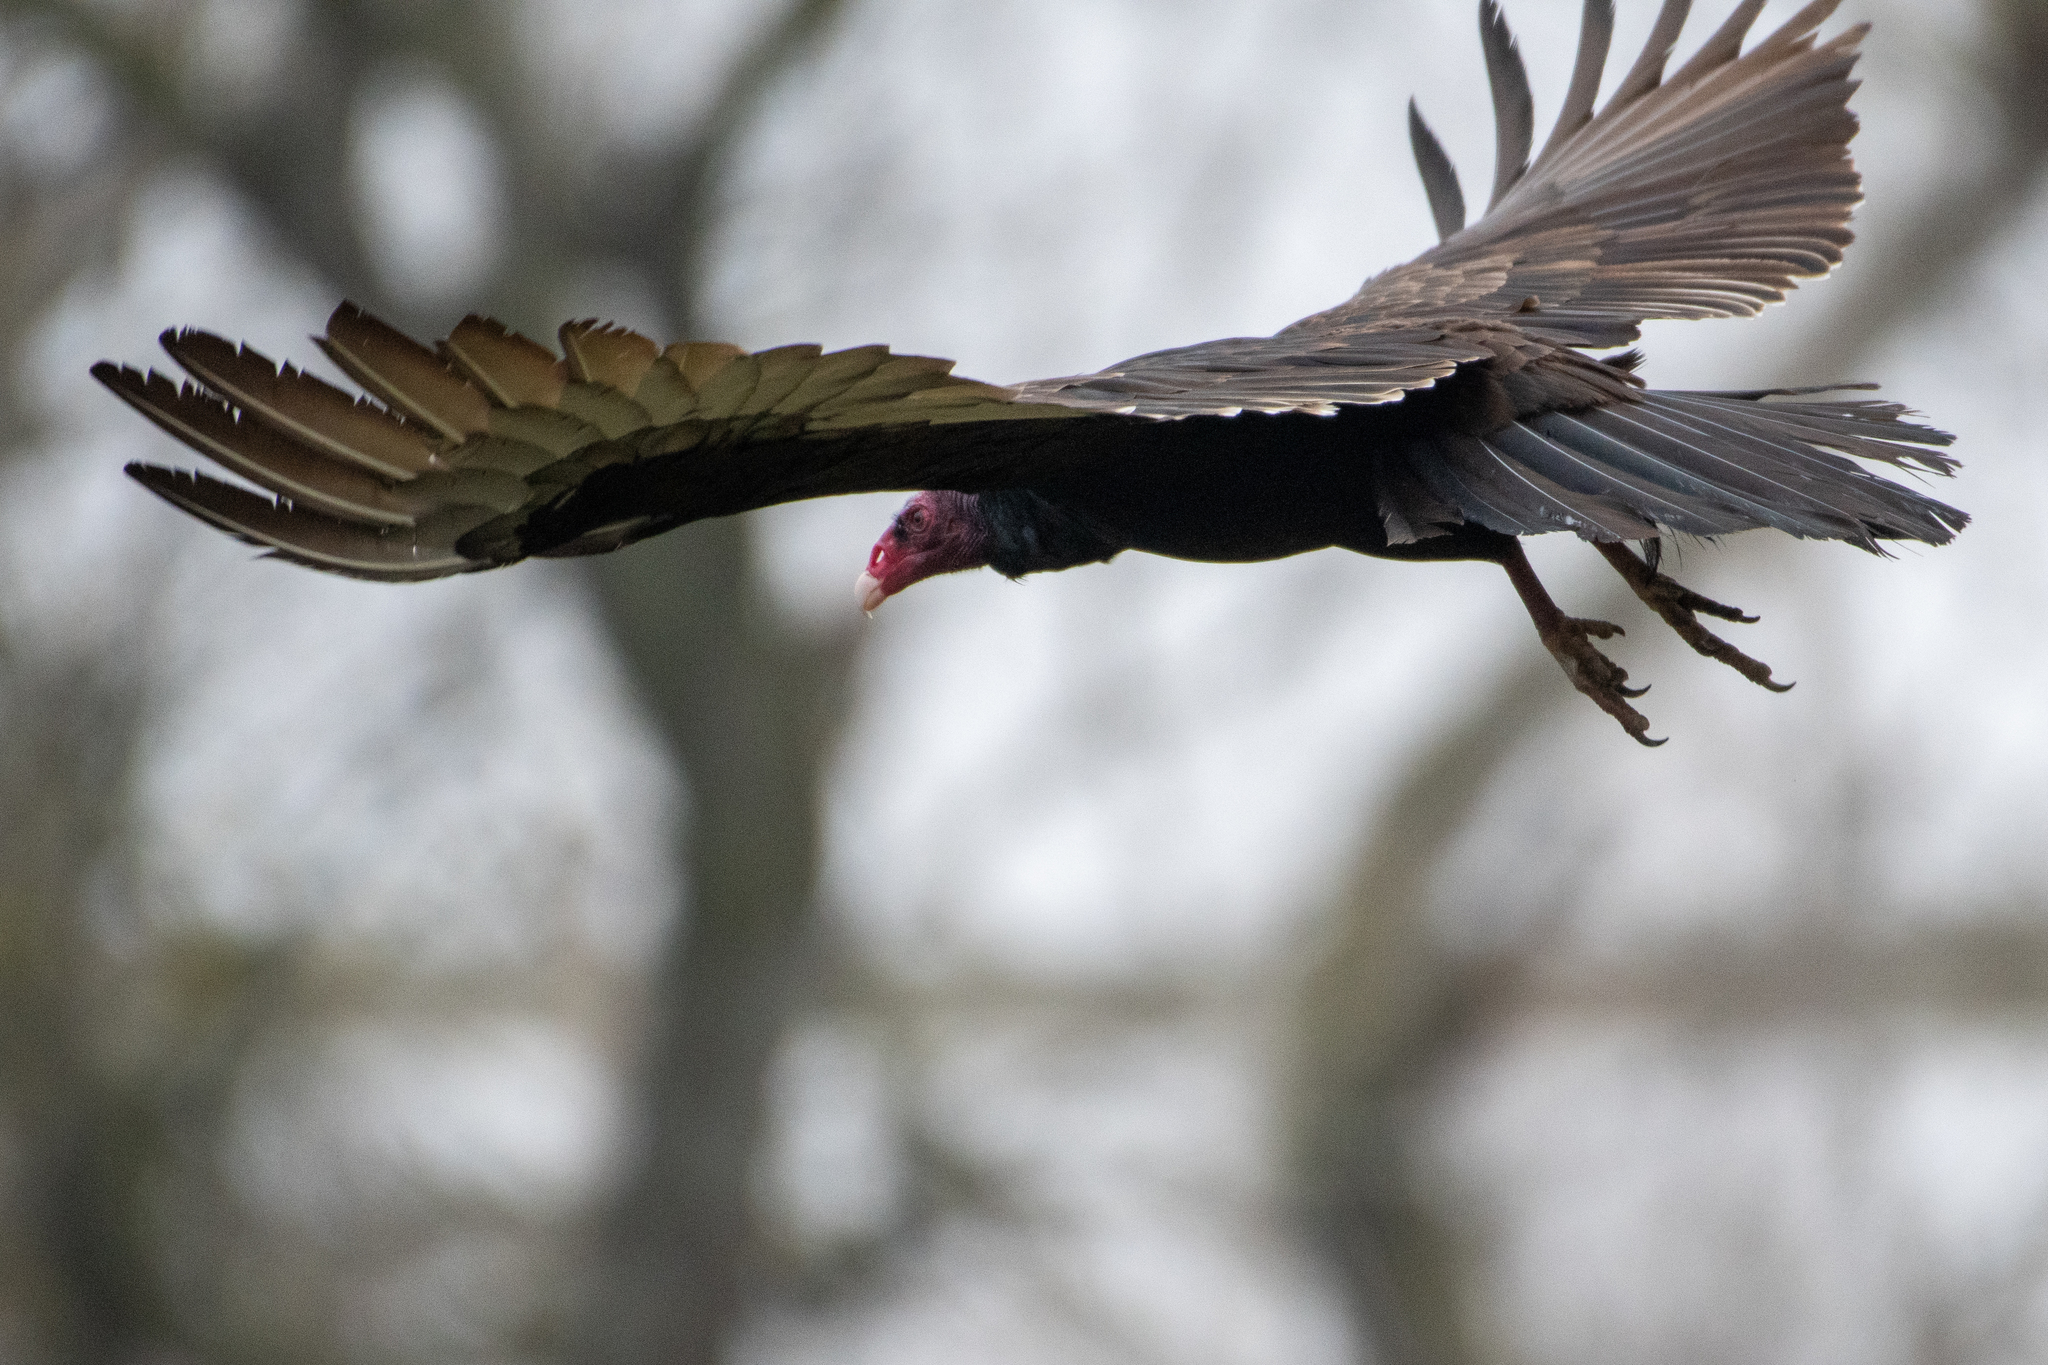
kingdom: Animalia
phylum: Chordata
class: Aves
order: Accipitriformes
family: Cathartidae
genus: Cathartes
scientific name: Cathartes aura
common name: Turkey vulture
